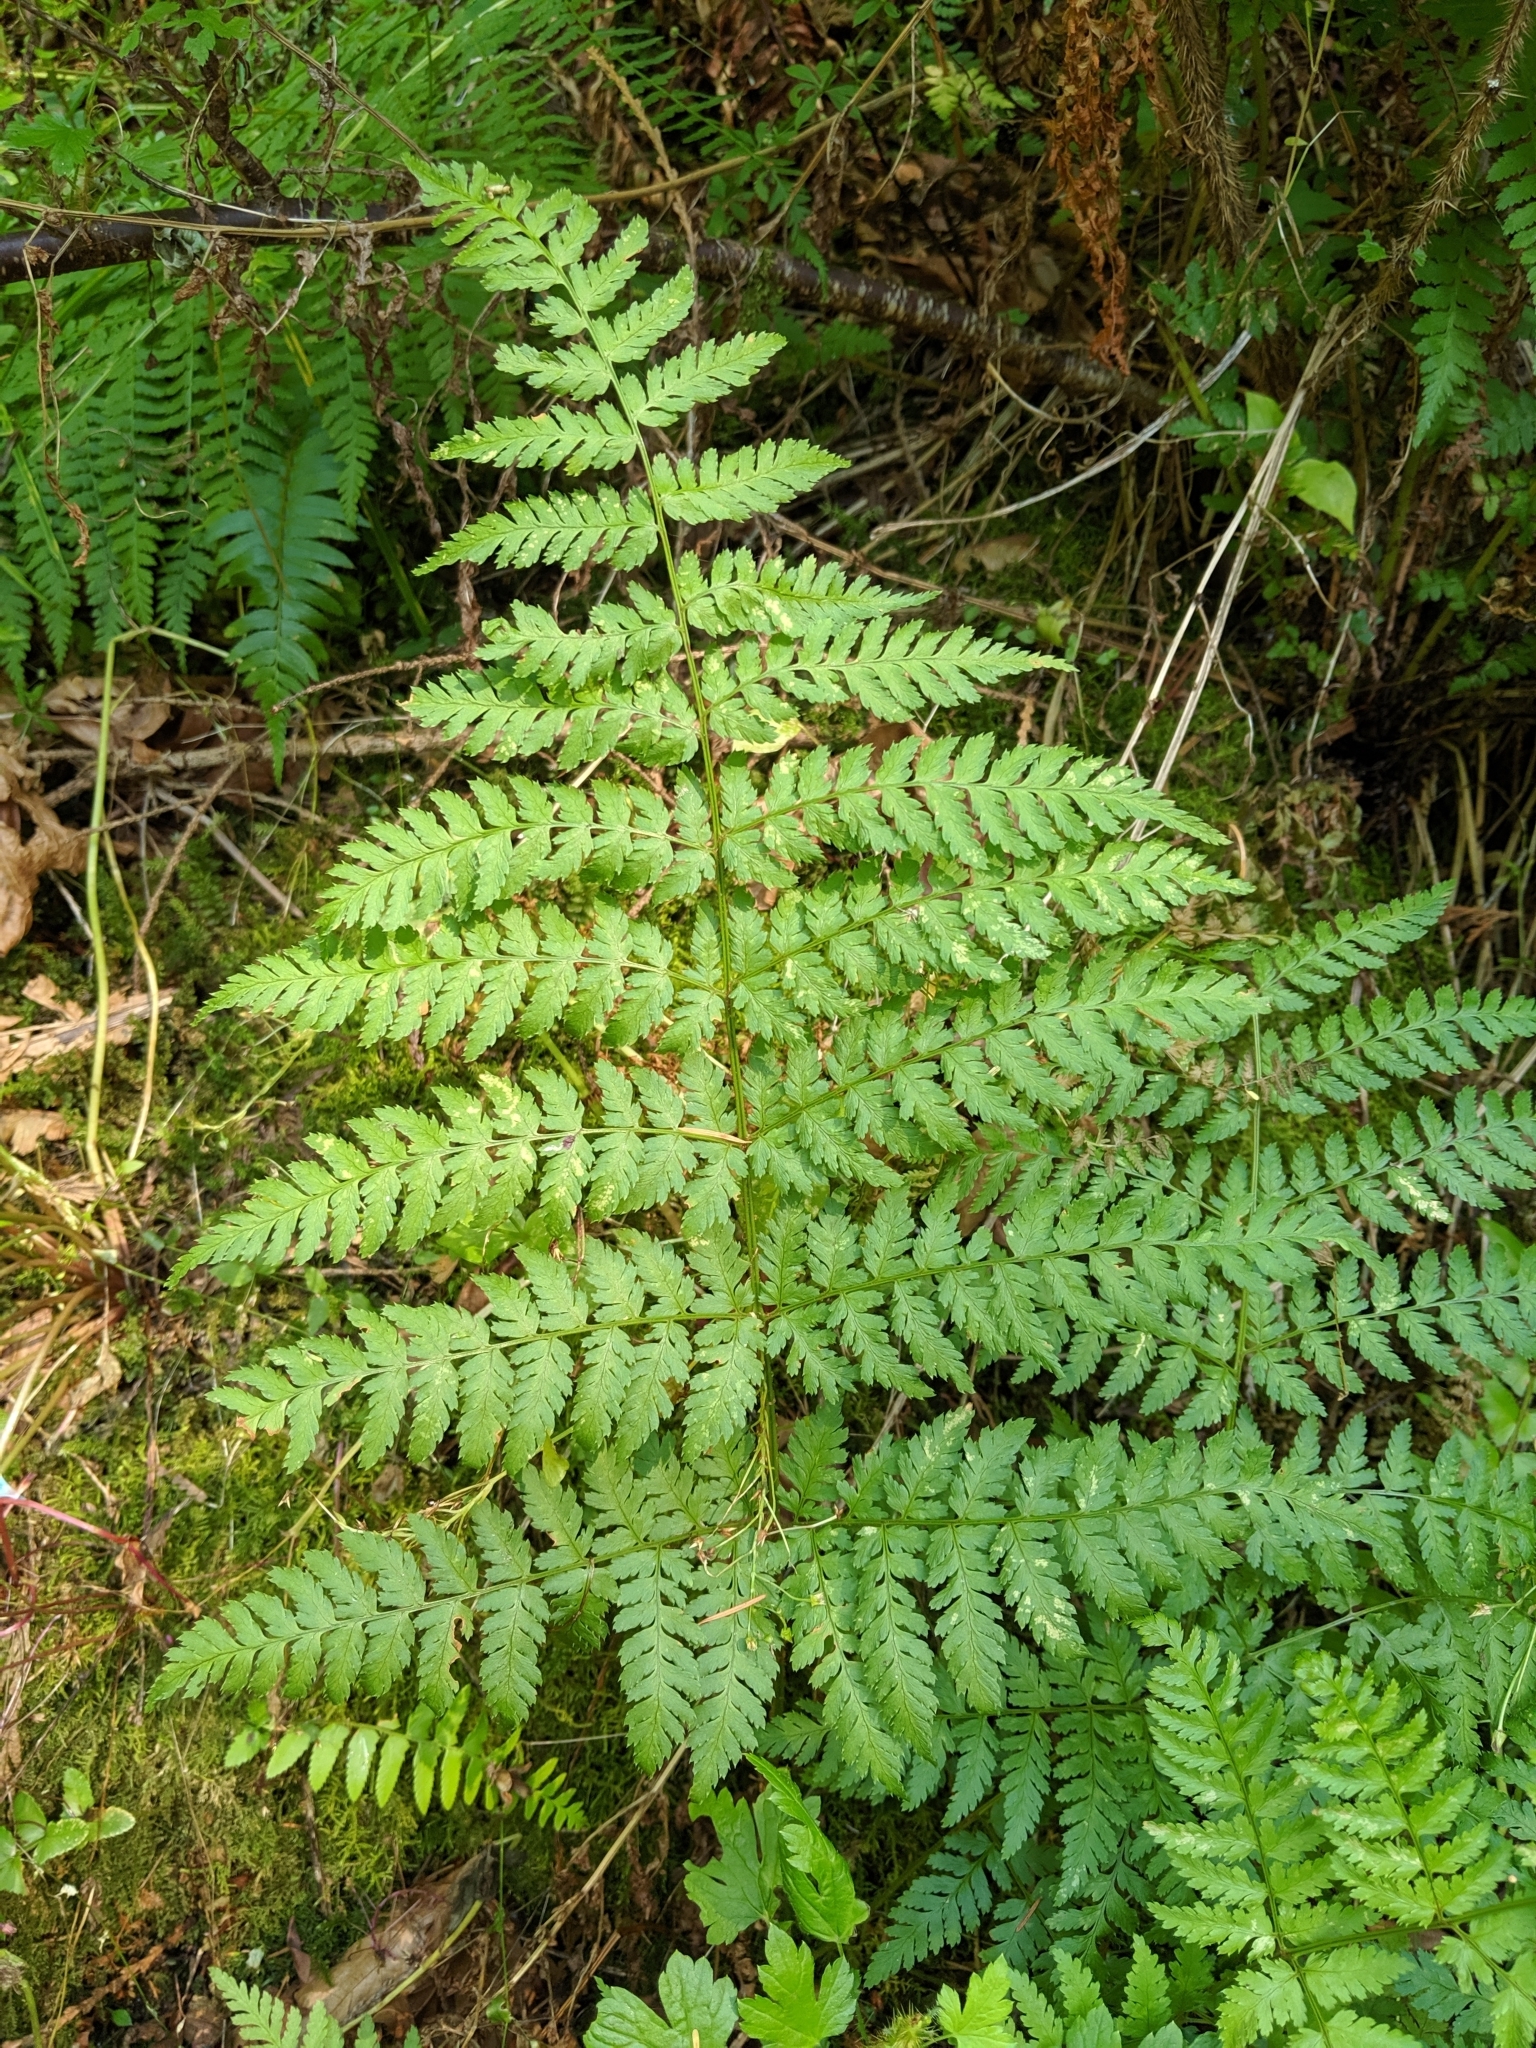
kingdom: Plantae
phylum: Tracheophyta
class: Polypodiopsida
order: Polypodiales
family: Dryopteridaceae
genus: Dryopteris
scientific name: Dryopteris expansa
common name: Northern buckler fern
